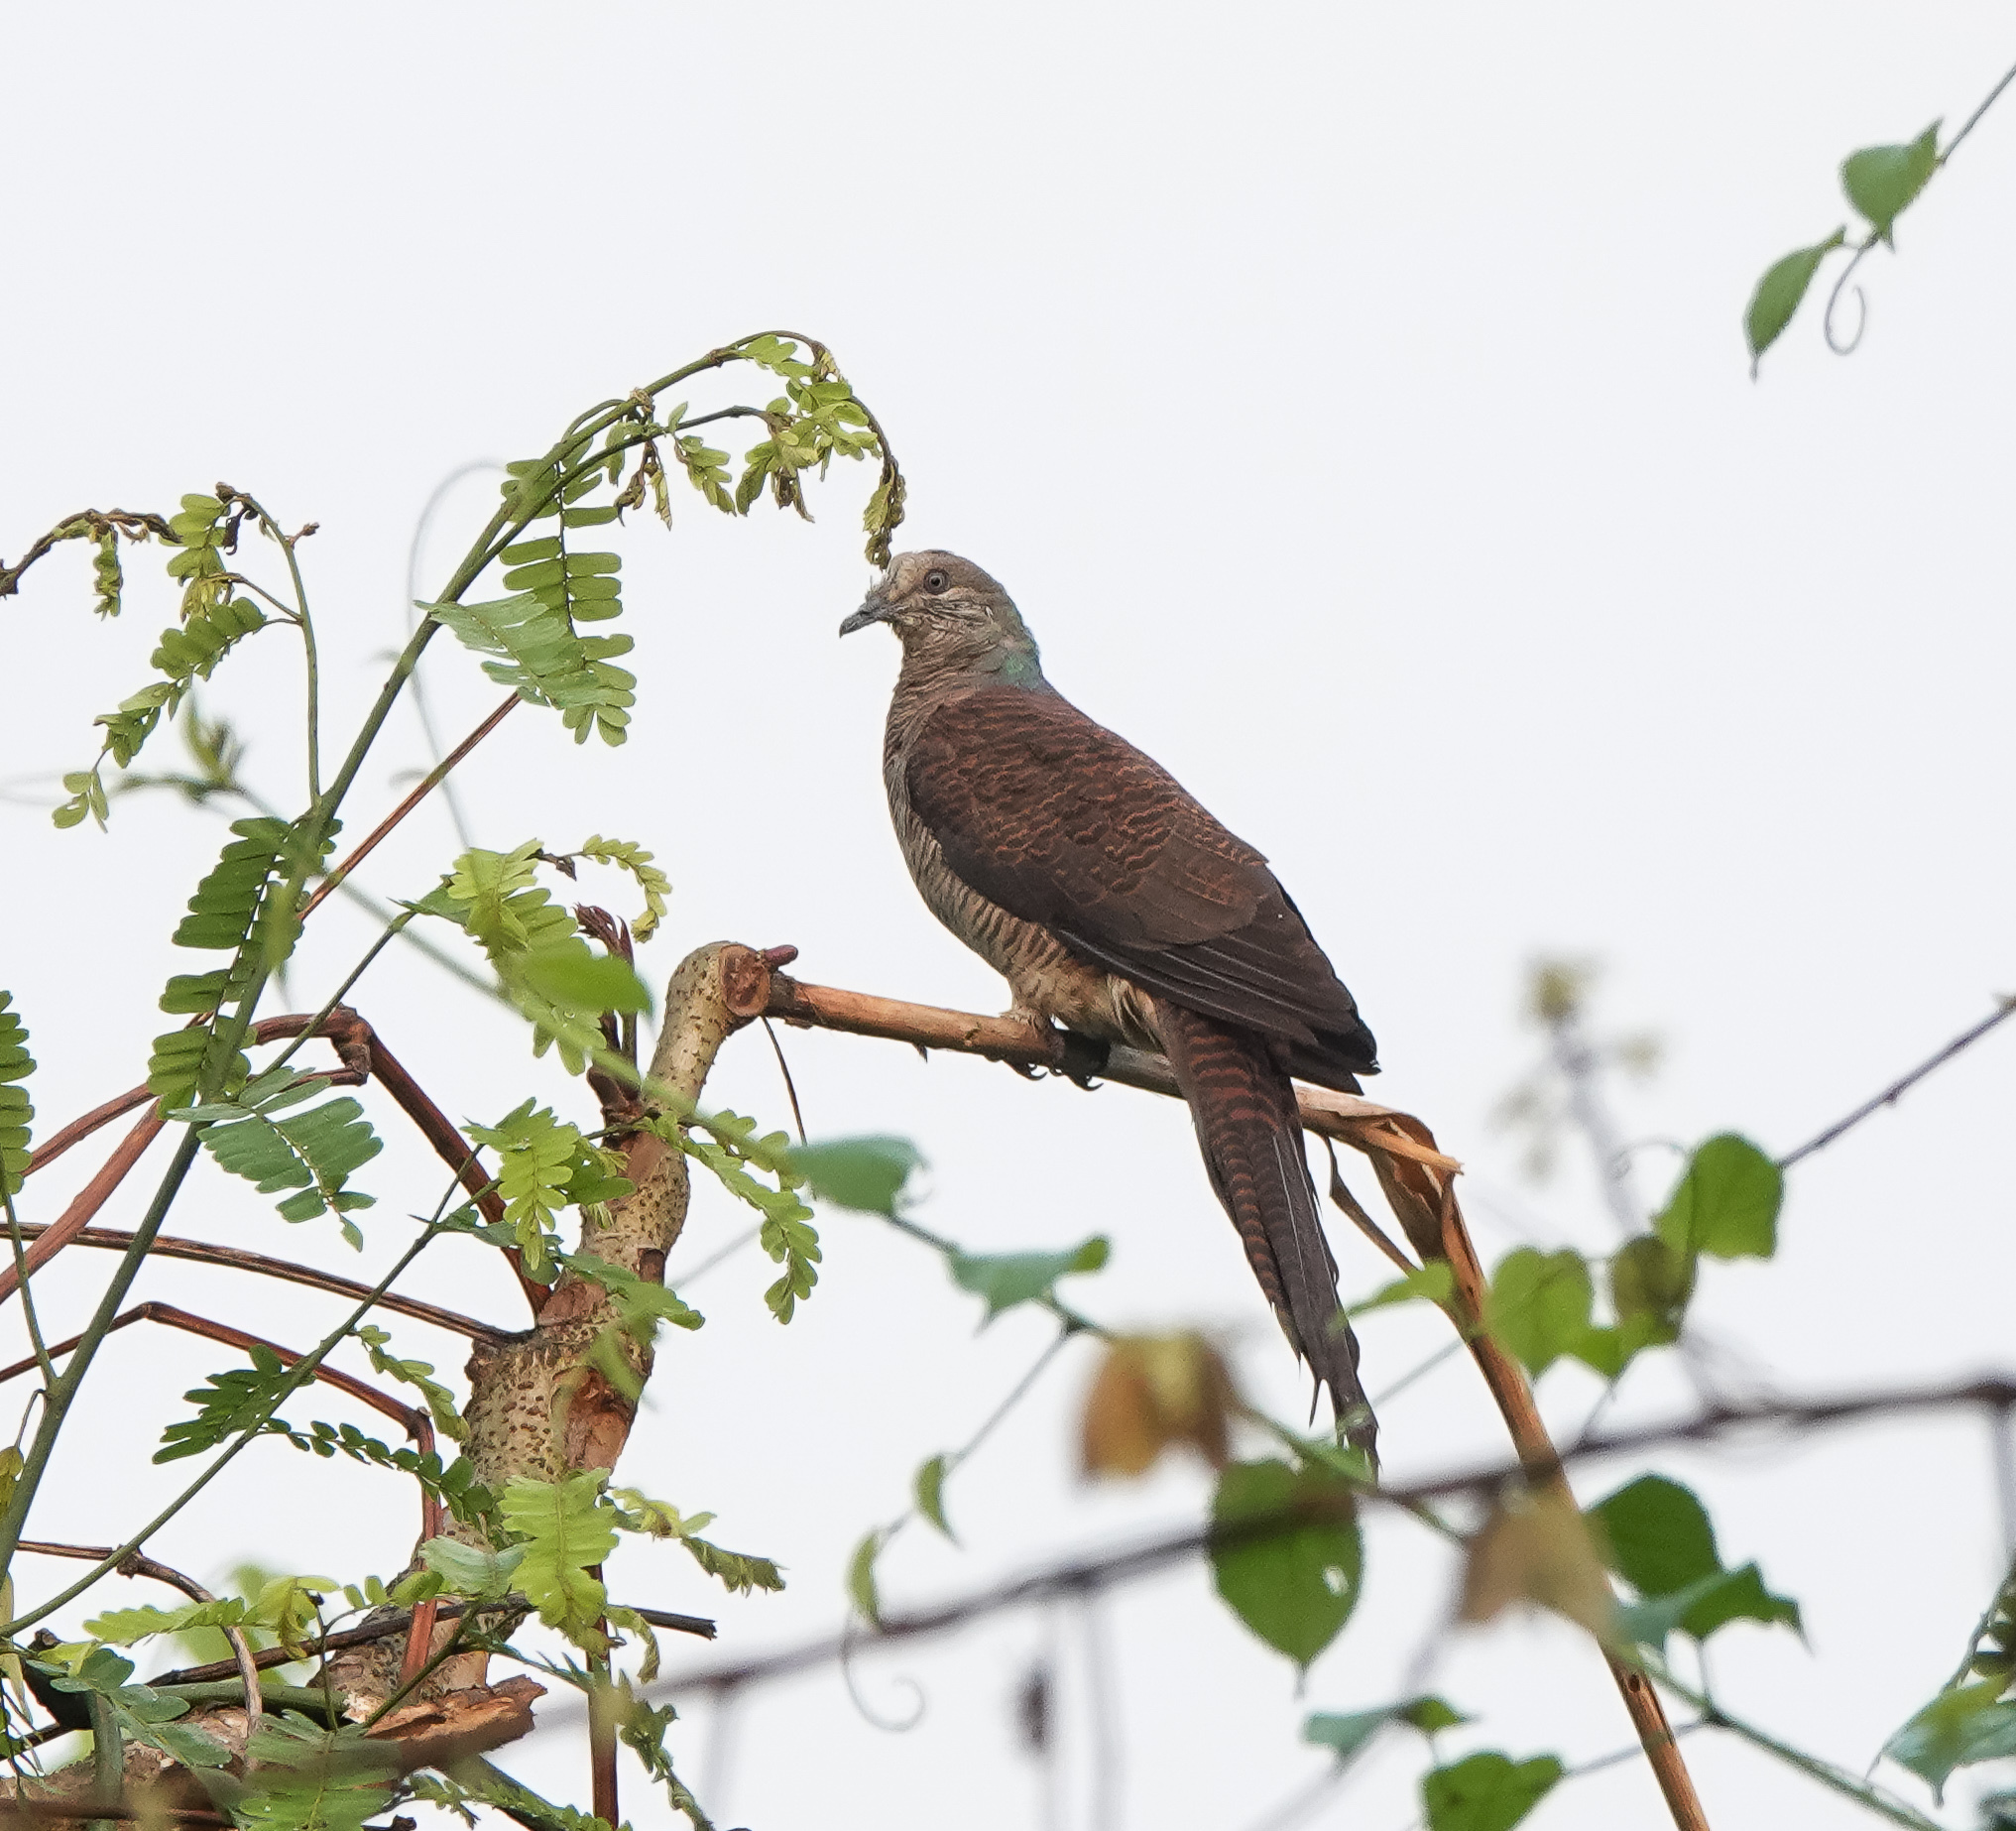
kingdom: Animalia
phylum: Chordata
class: Aves
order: Columbiformes
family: Columbidae
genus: Macropygia
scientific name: Macropygia unchall
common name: Barred cuckoo-dove
